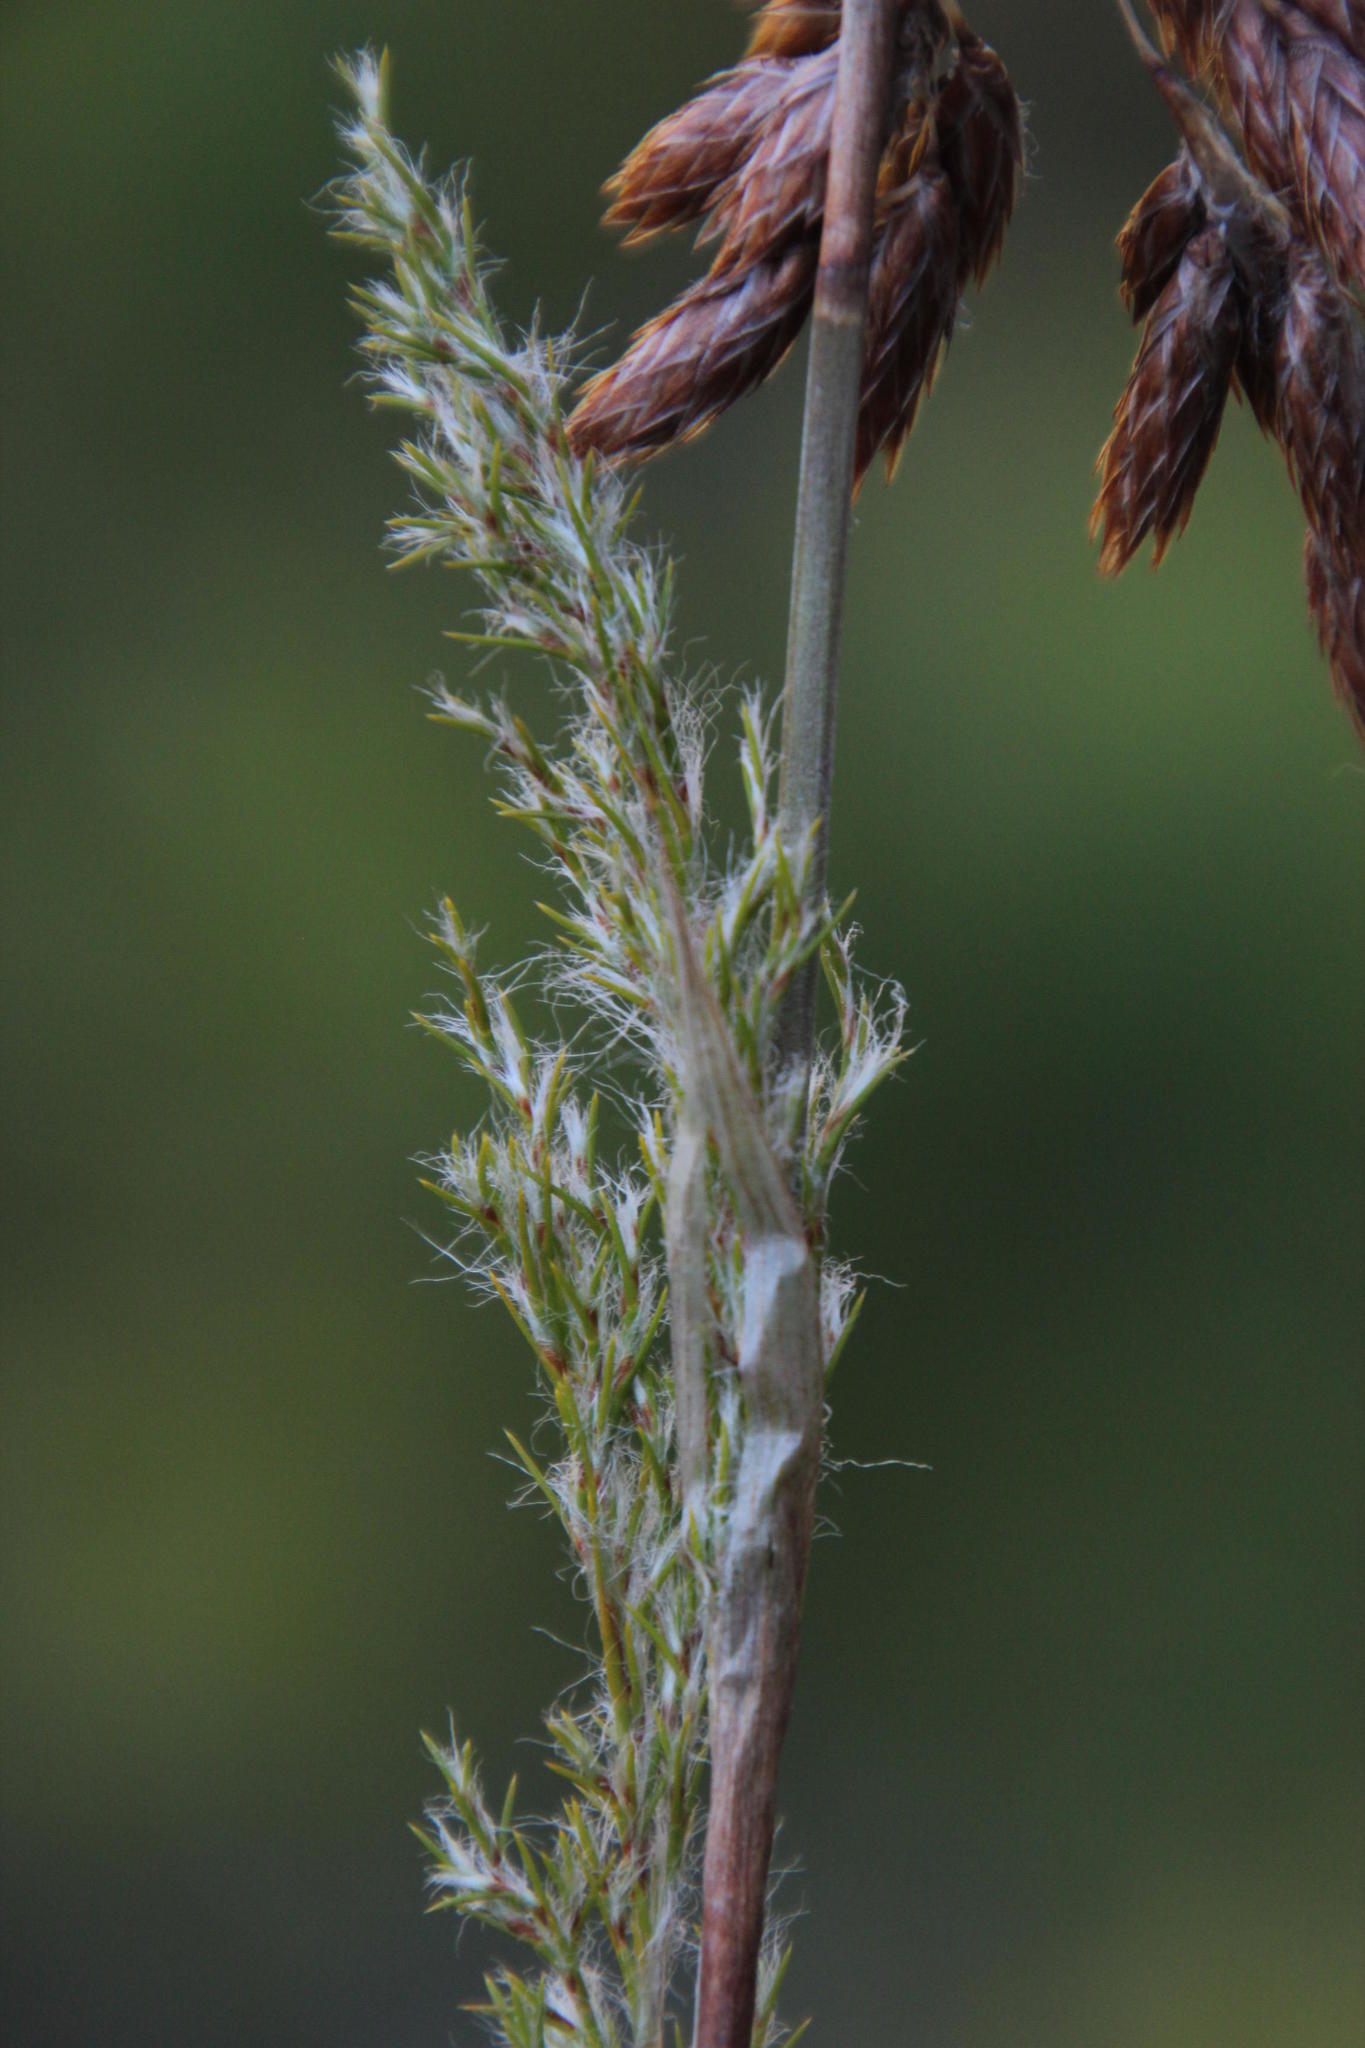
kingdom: Plantae
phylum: Tracheophyta
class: Liliopsida
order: Poales
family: Restionaceae
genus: Thamnochortus
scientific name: Thamnochortus fruticosus
